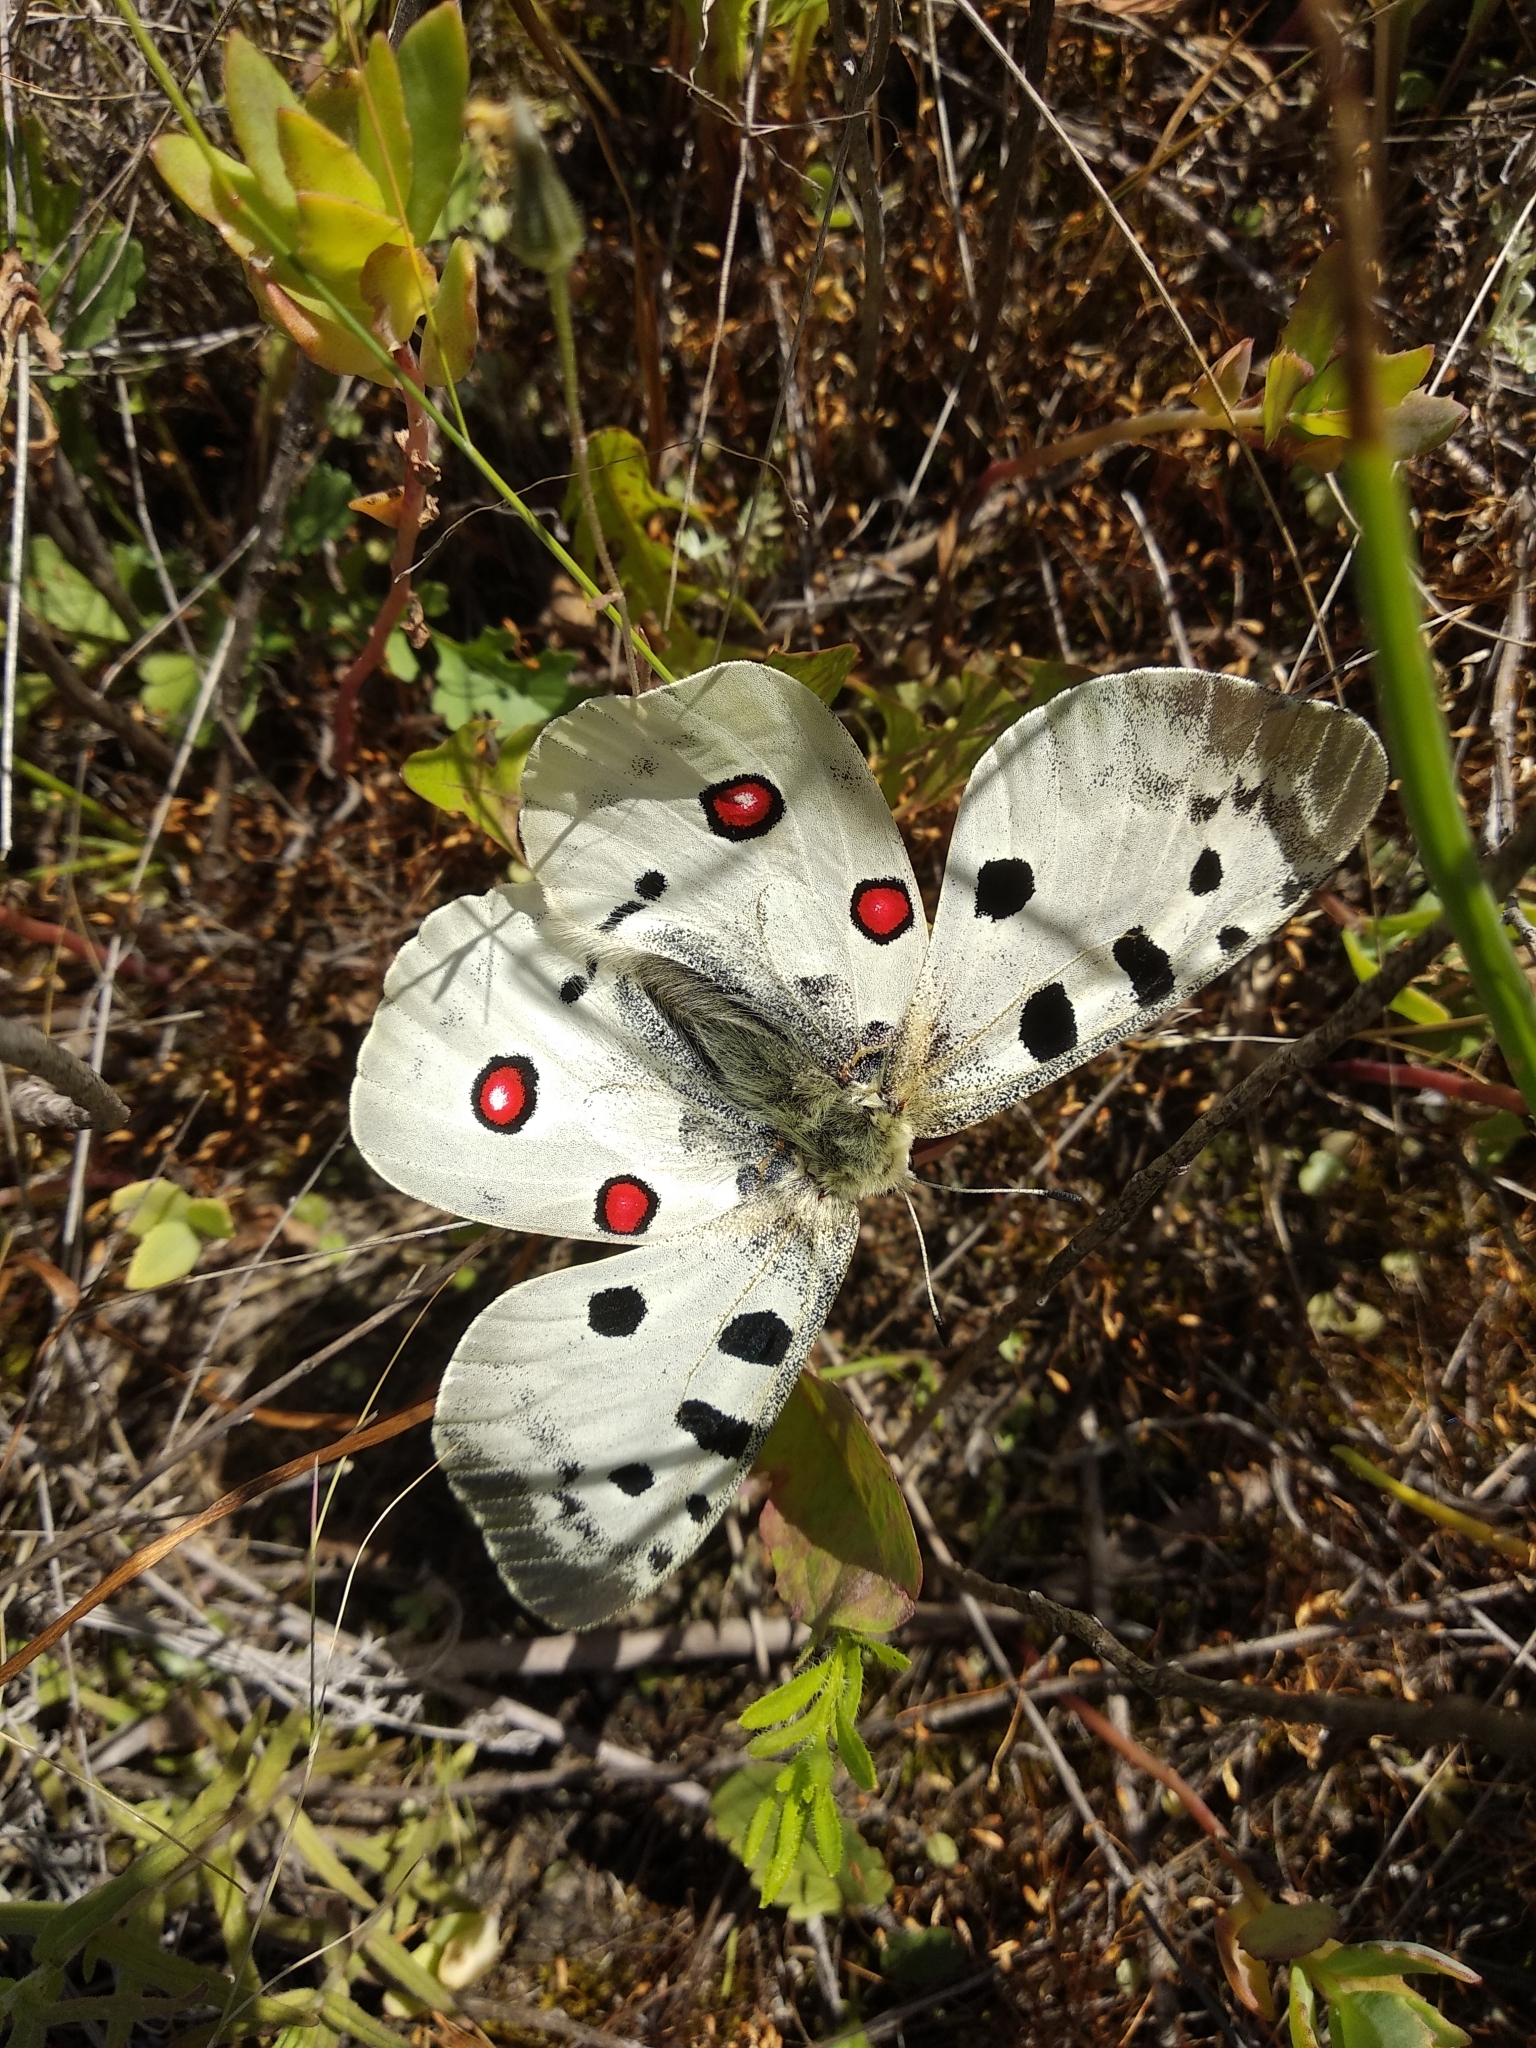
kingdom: Animalia
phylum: Arthropoda
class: Insecta
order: Lepidoptera
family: Papilionidae
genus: Parnassius
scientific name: Parnassius apollo
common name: Apollo
